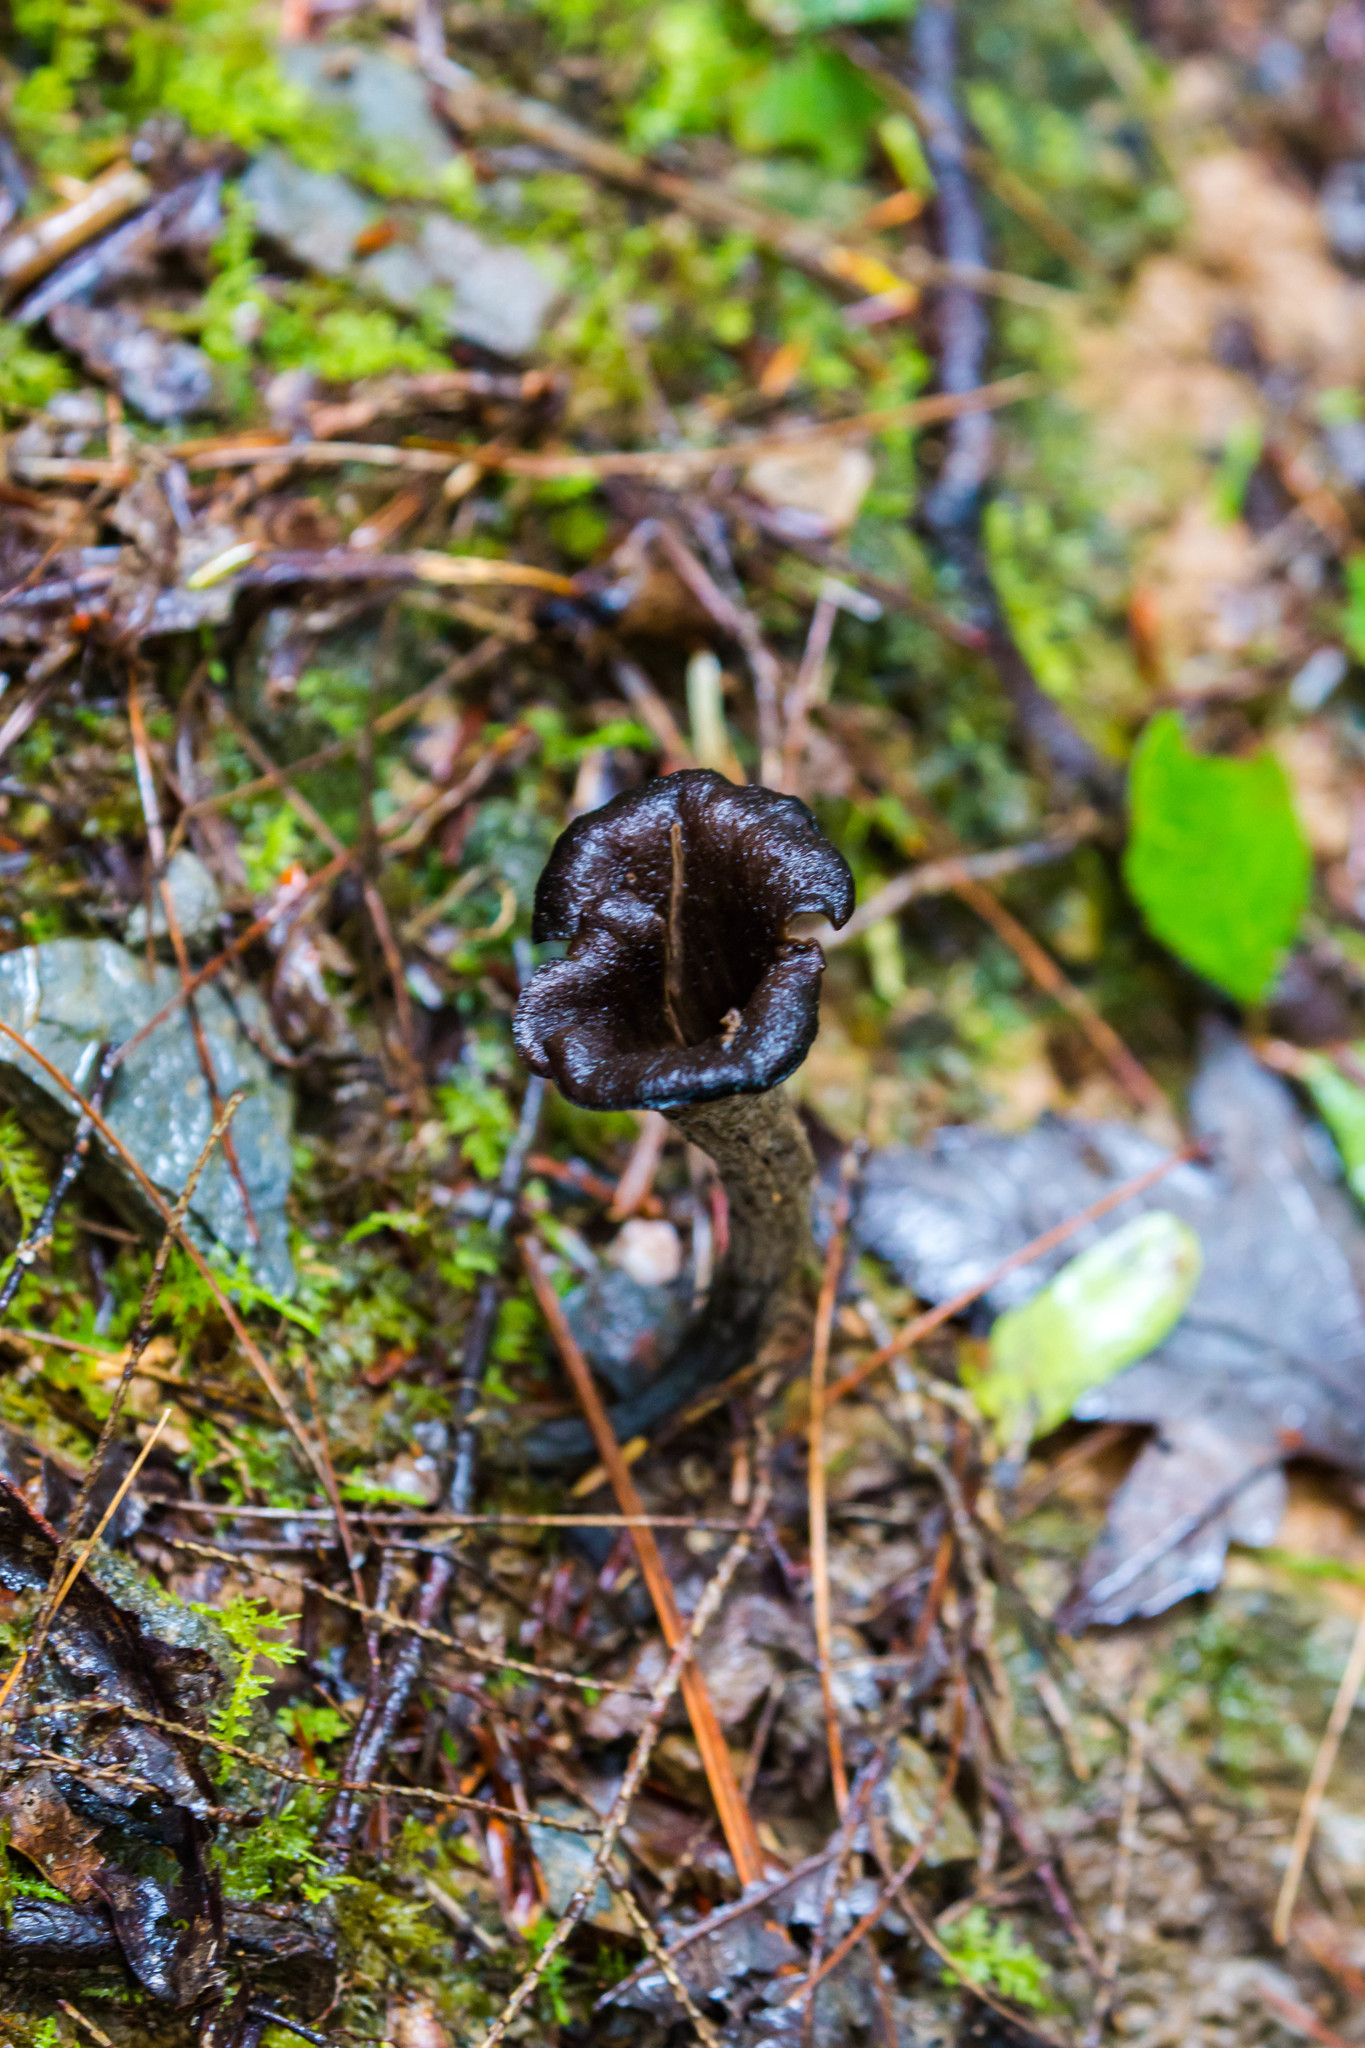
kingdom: Fungi
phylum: Basidiomycota
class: Agaricomycetes
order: Cantharellales
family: Hydnaceae
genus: Craterellus
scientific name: Craterellus cornucopioides
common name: Horn of plenty
